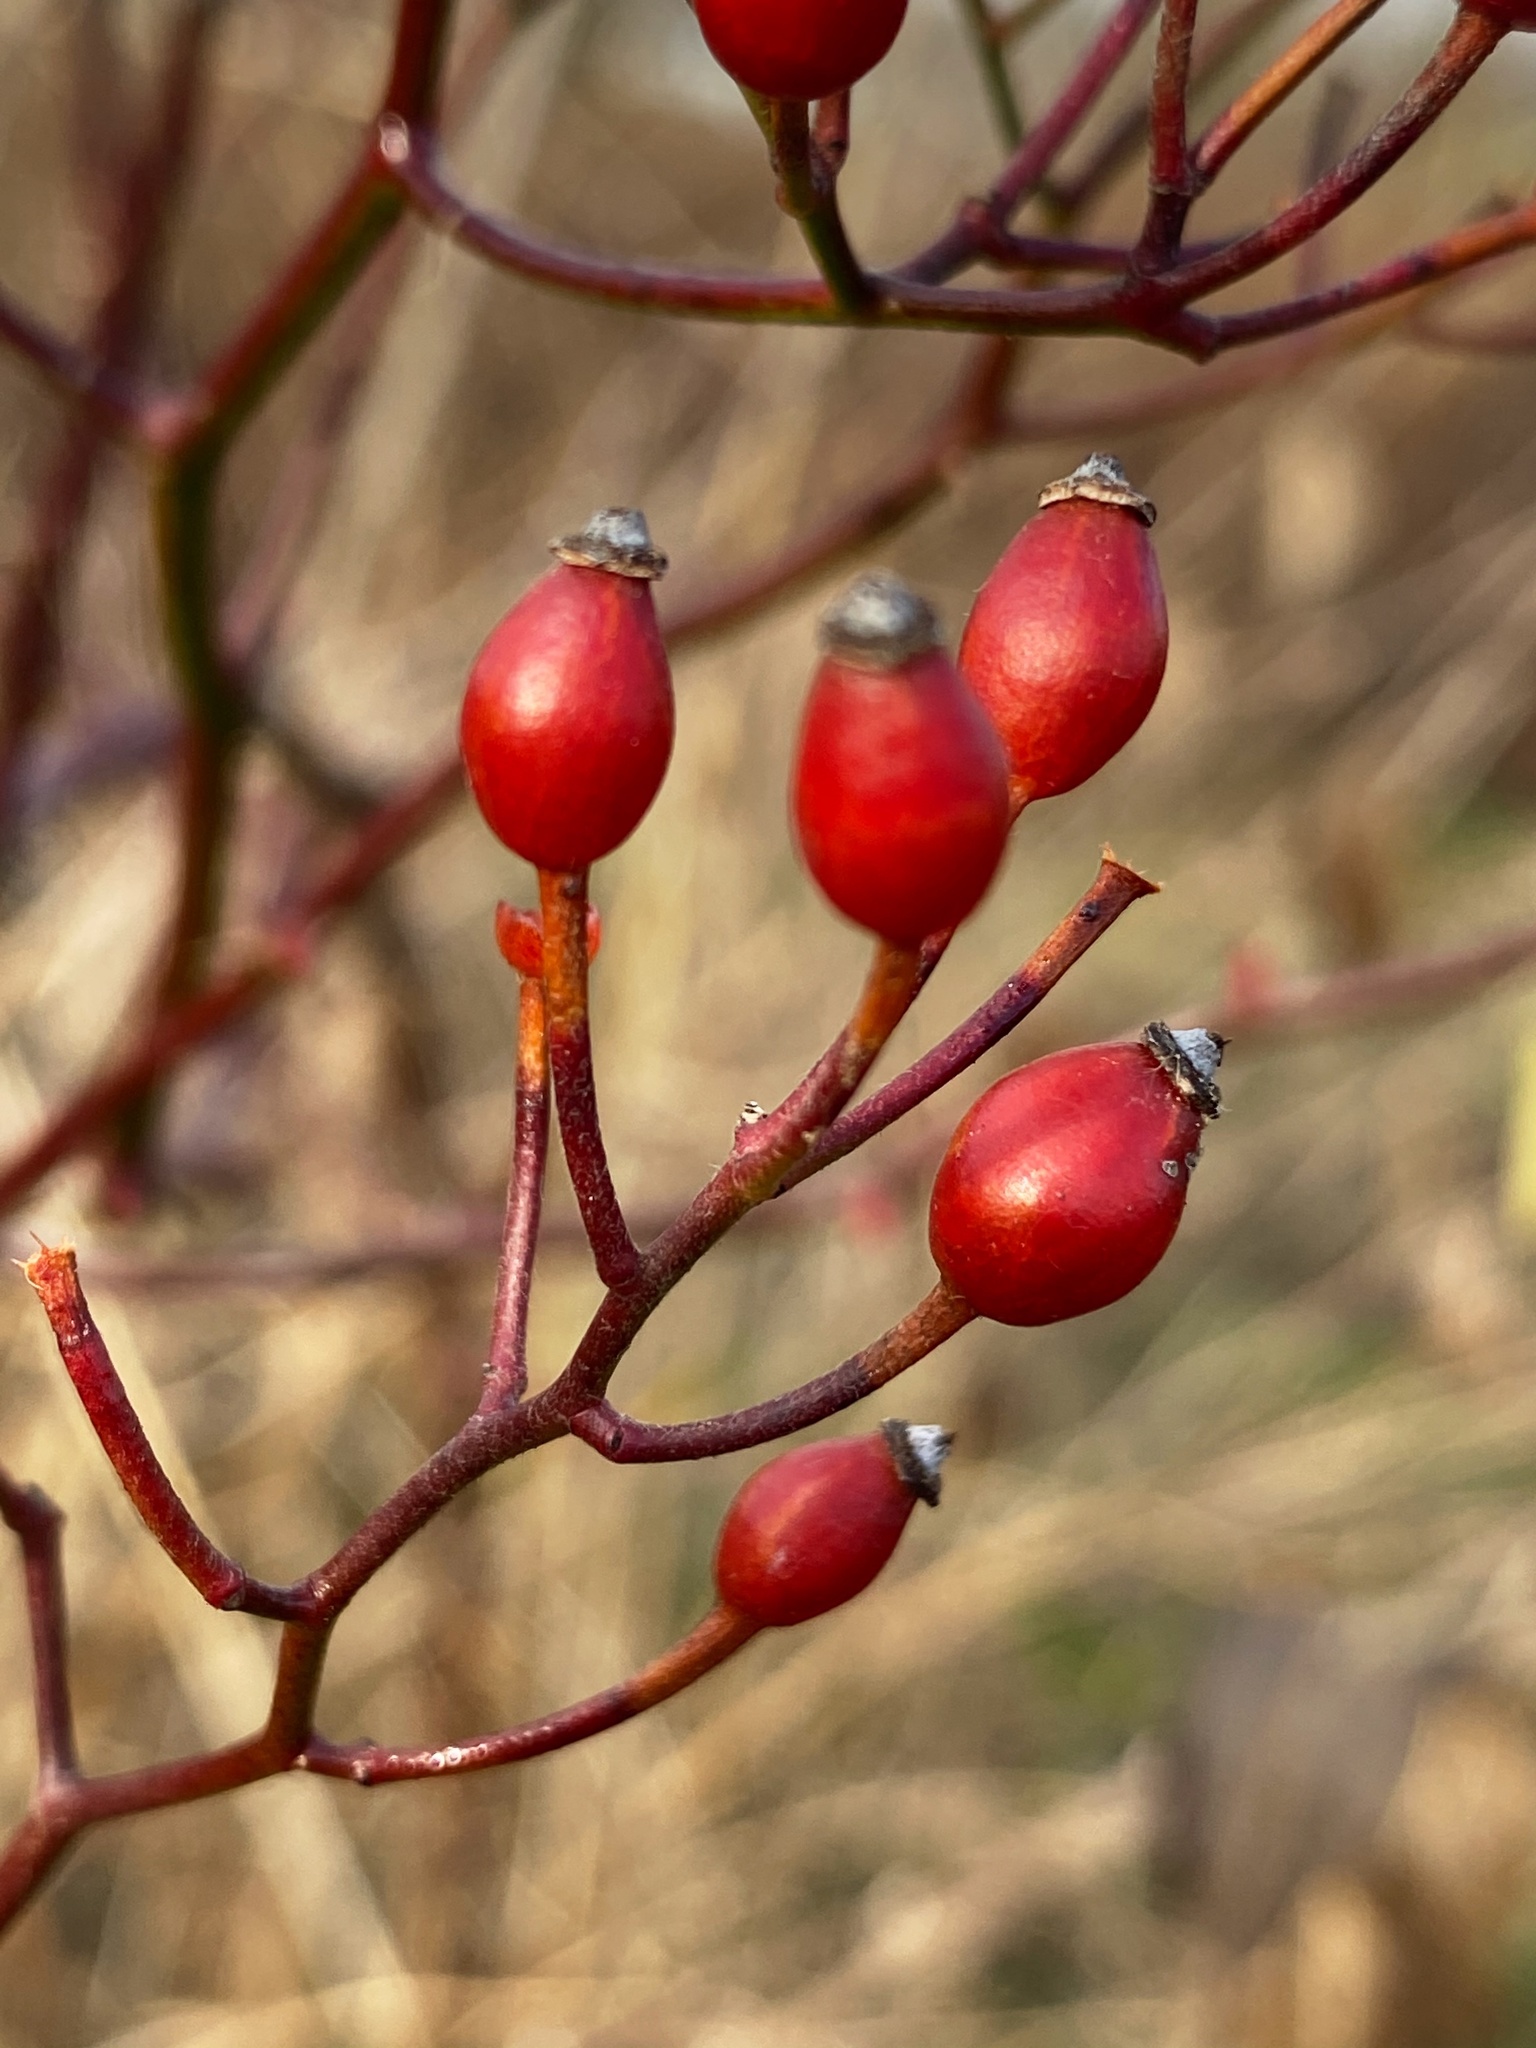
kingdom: Plantae
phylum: Tracheophyta
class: Magnoliopsida
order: Rosales
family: Rosaceae
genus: Rosa
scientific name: Rosa multiflora
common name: Multiflora rose
